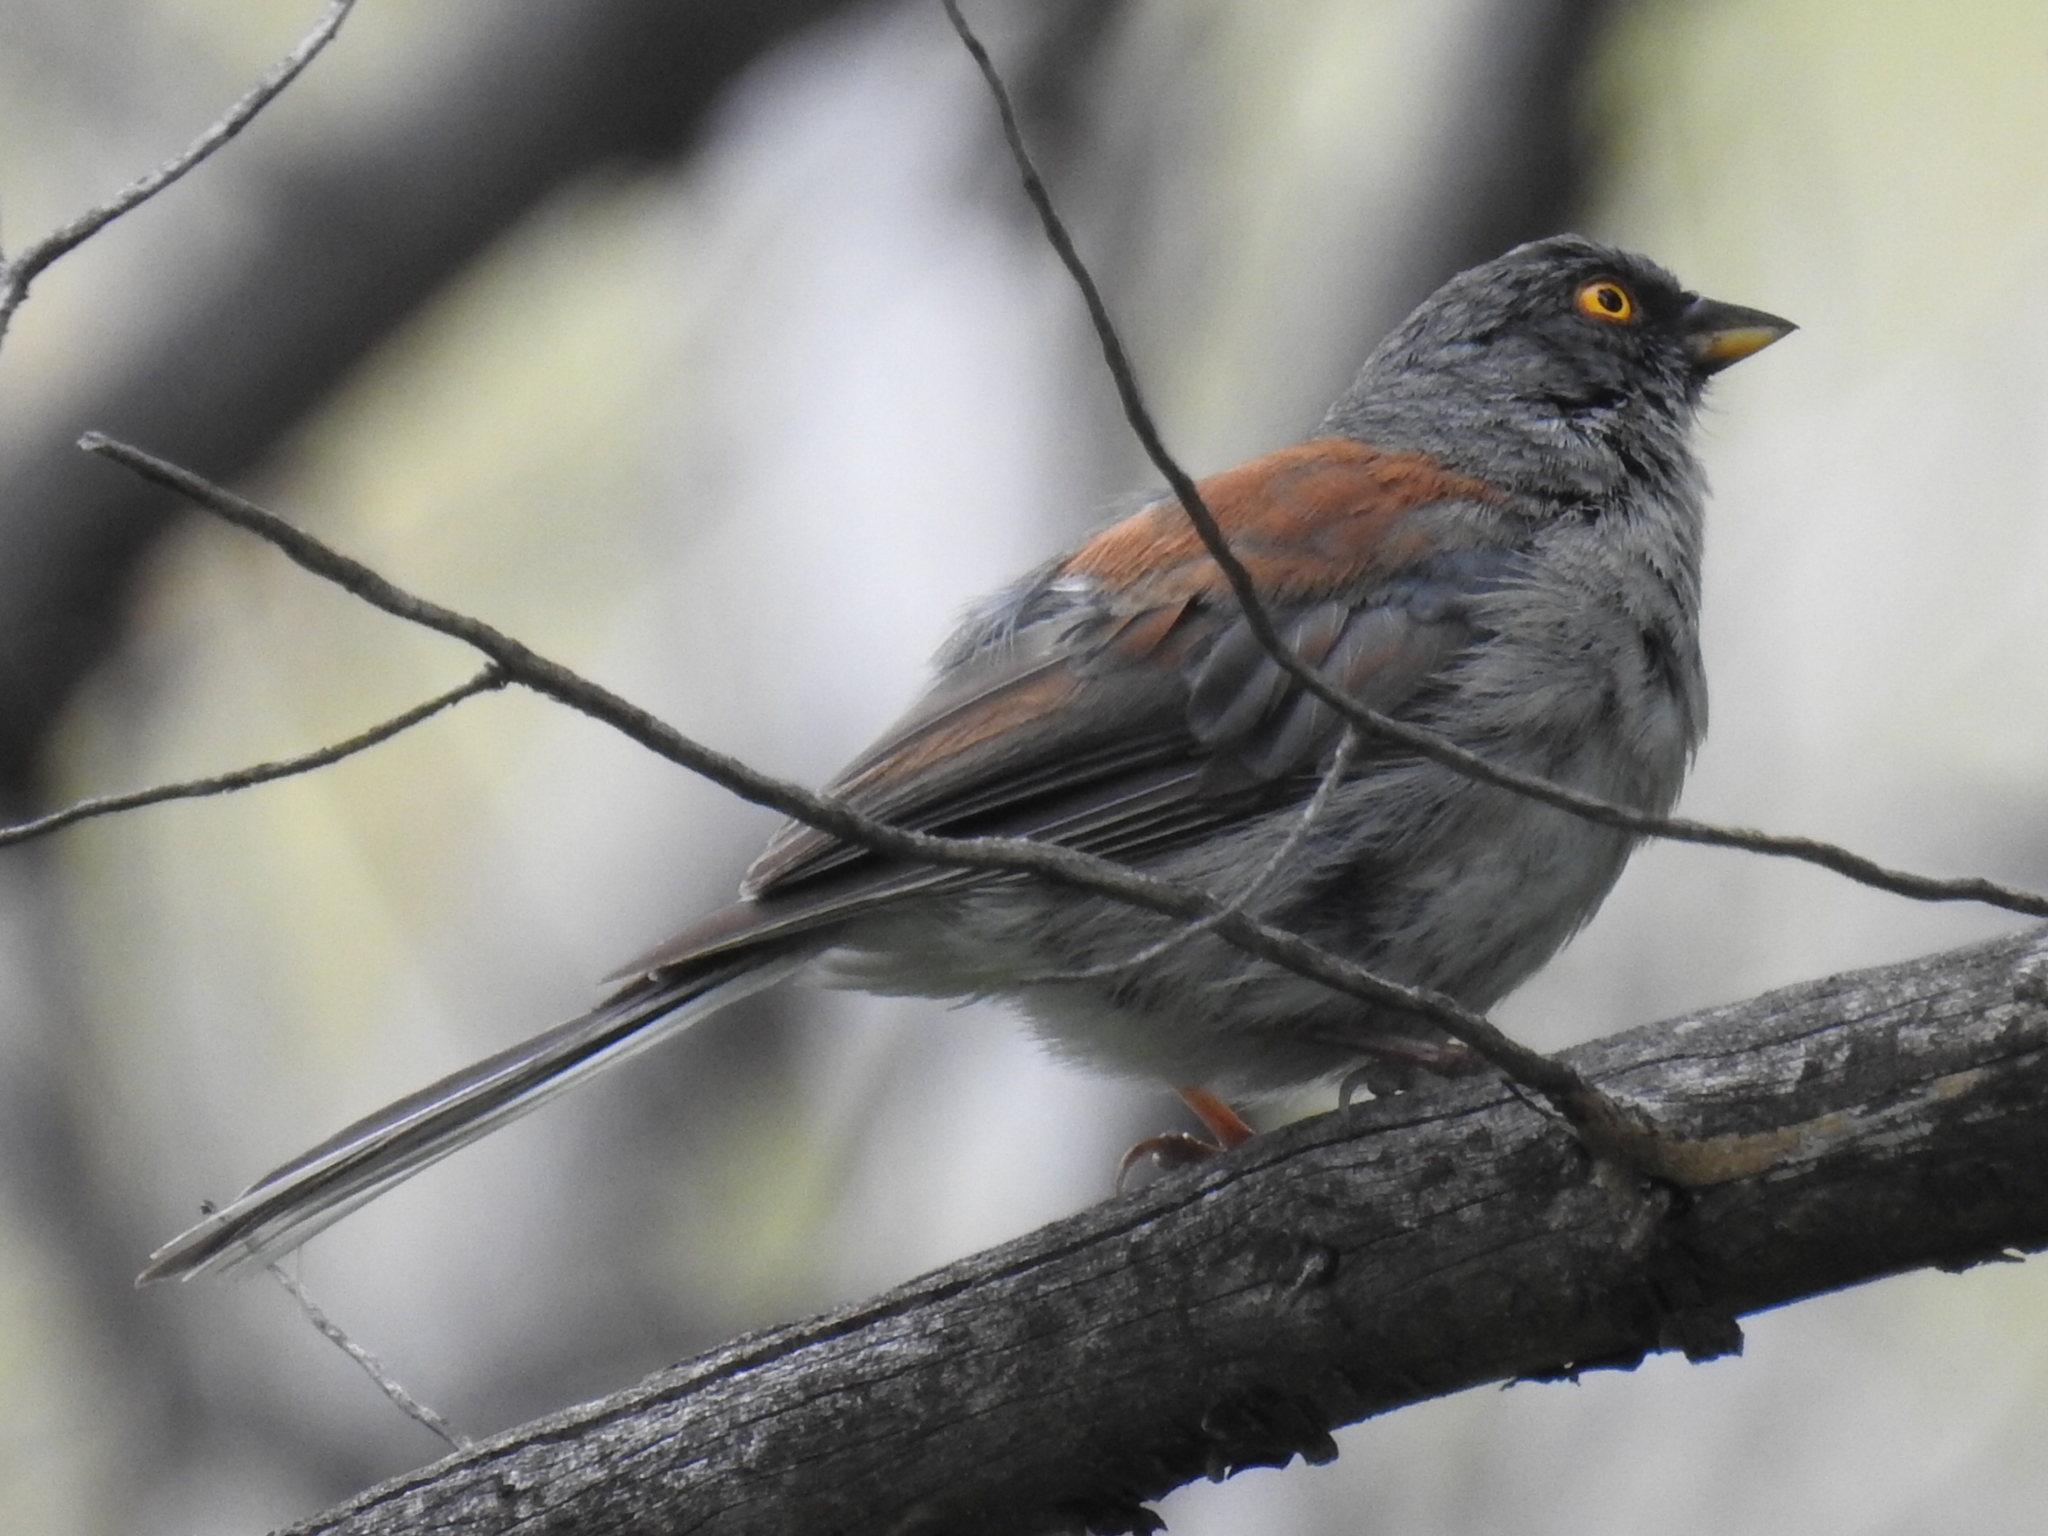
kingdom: Animalia
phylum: Chordata
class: Aves
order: Passeriformes
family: Passerellidae
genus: Junco
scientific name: Junco phaeonotus
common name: Yellow-eyed junco
